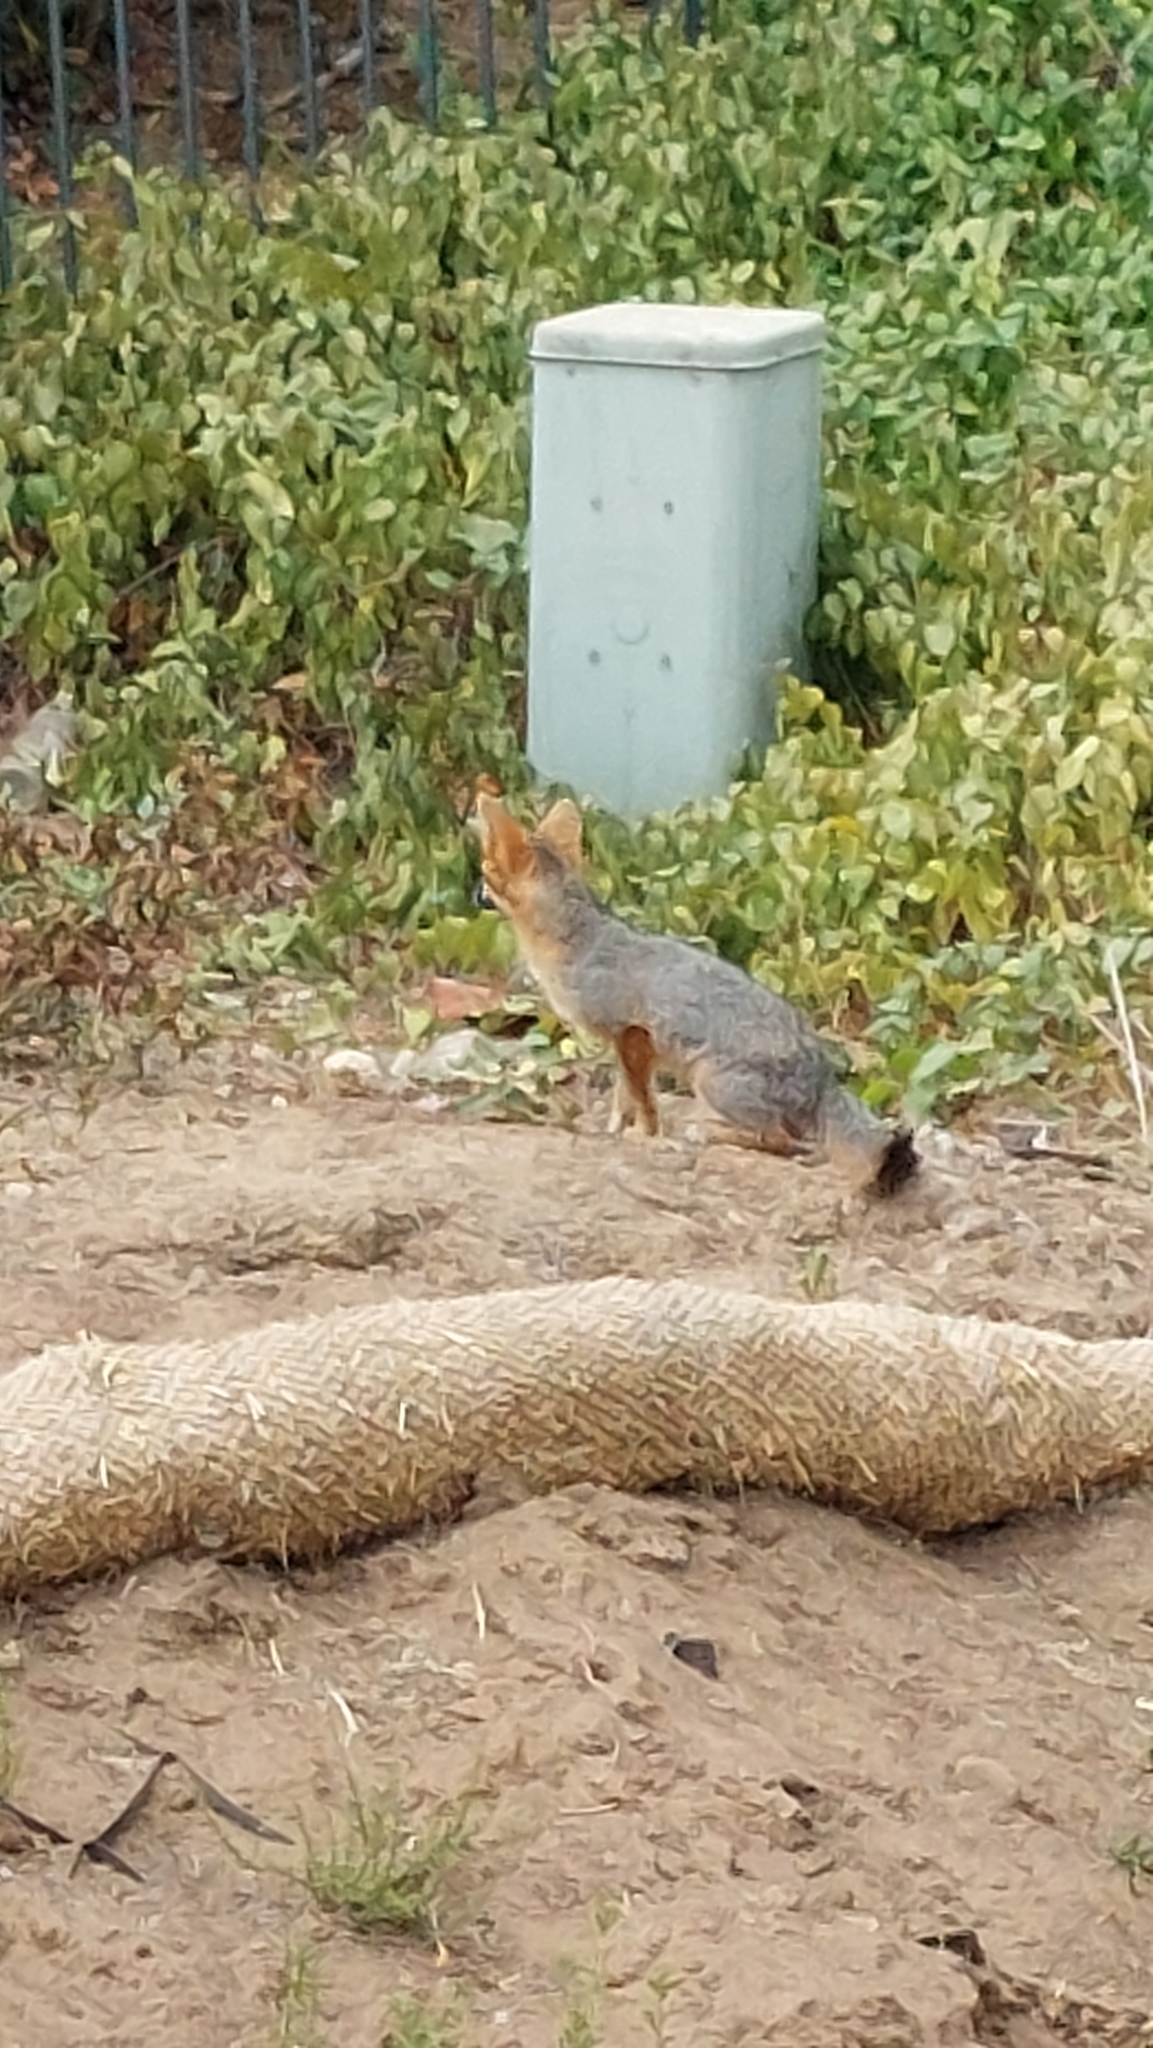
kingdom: Animalia
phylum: Chordata
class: Mammalia
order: Carnivora
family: Canidae
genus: Urocyon
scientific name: Urocyon cinereoargenteus
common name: Gray fox
